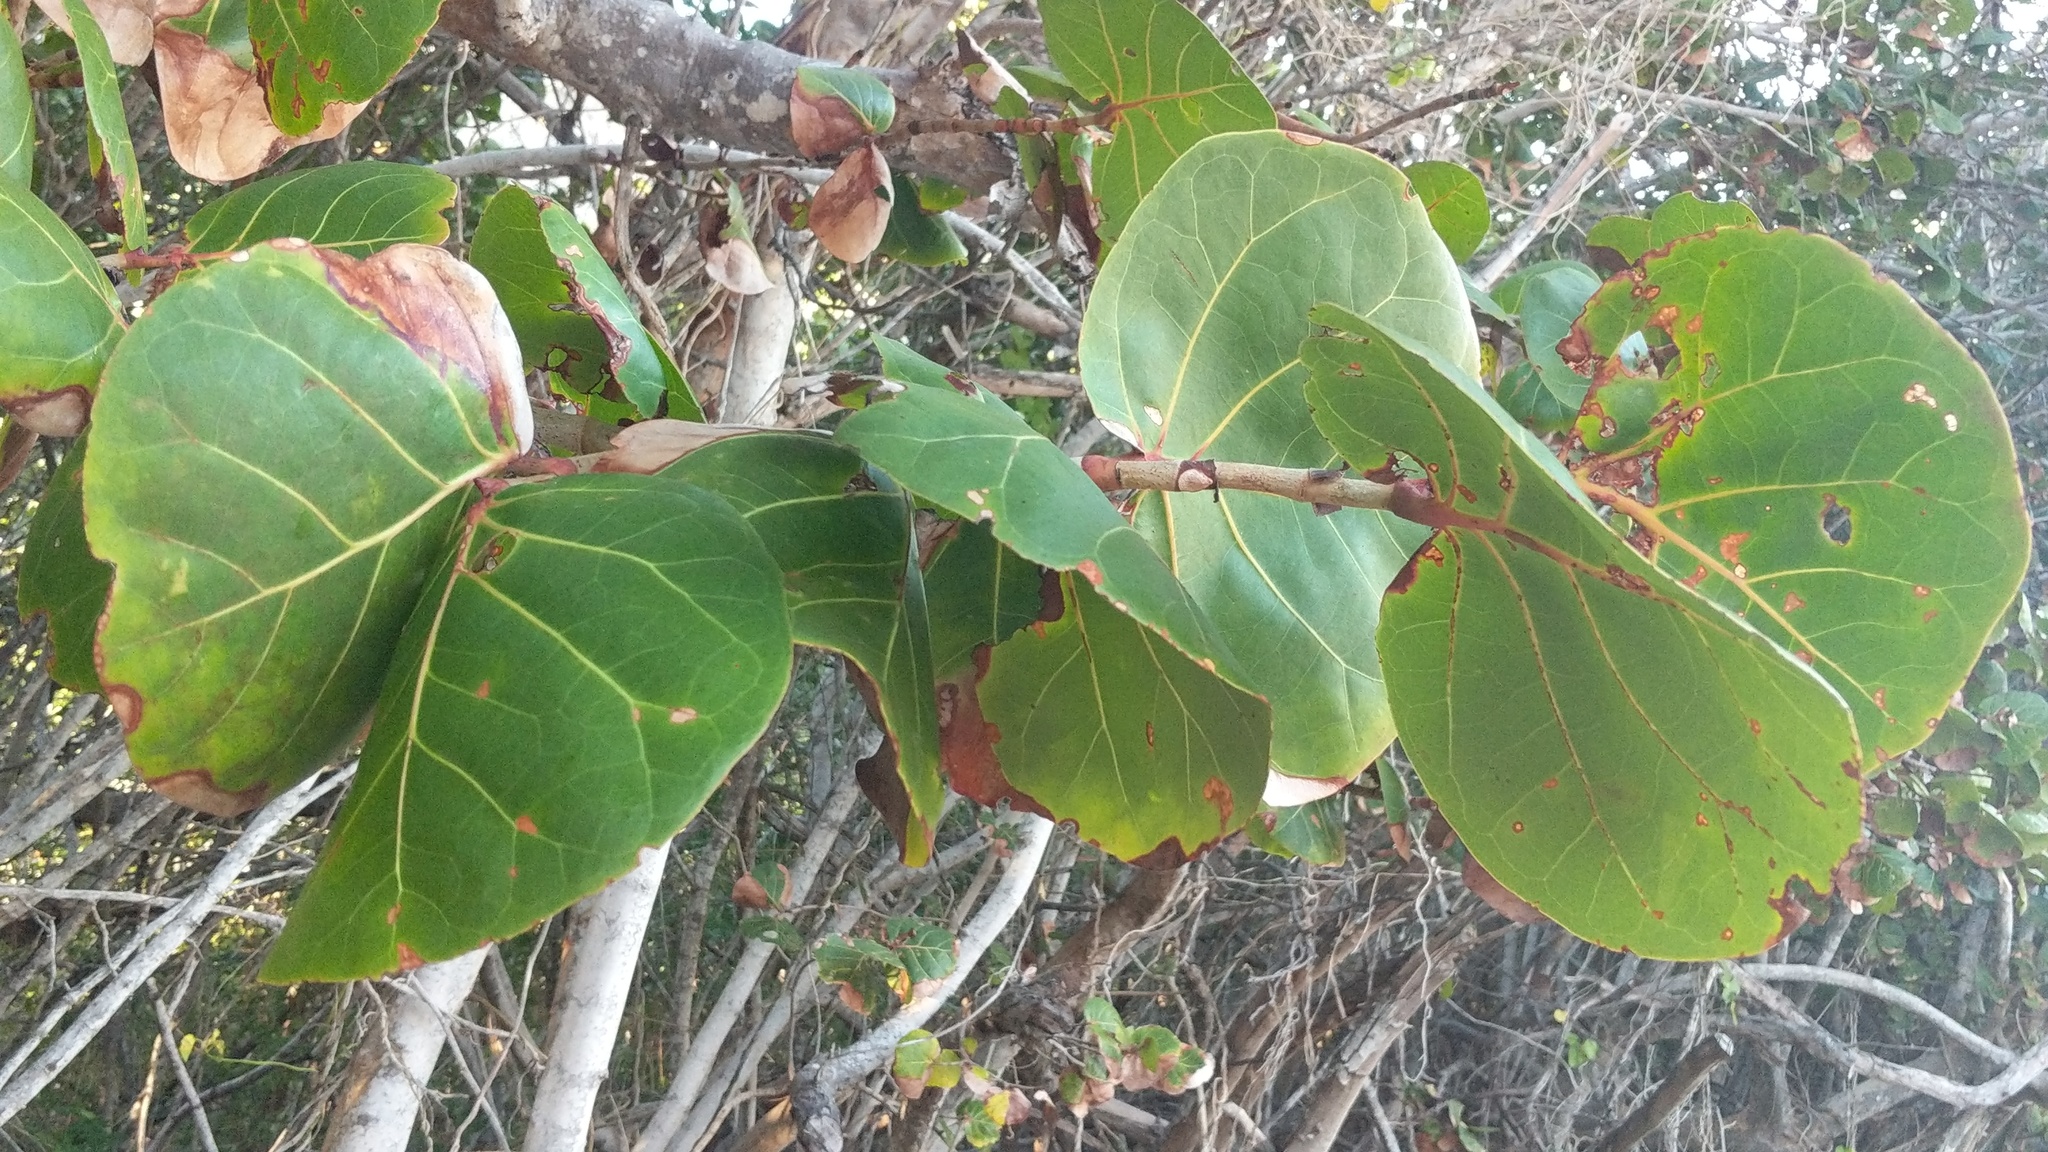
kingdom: Plantae
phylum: Tracheophyta
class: Magnoliopsida
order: Caryophyllales
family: Polygonaceae
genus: Coccoloba
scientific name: Coccoloba uvifera
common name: Seagrape
